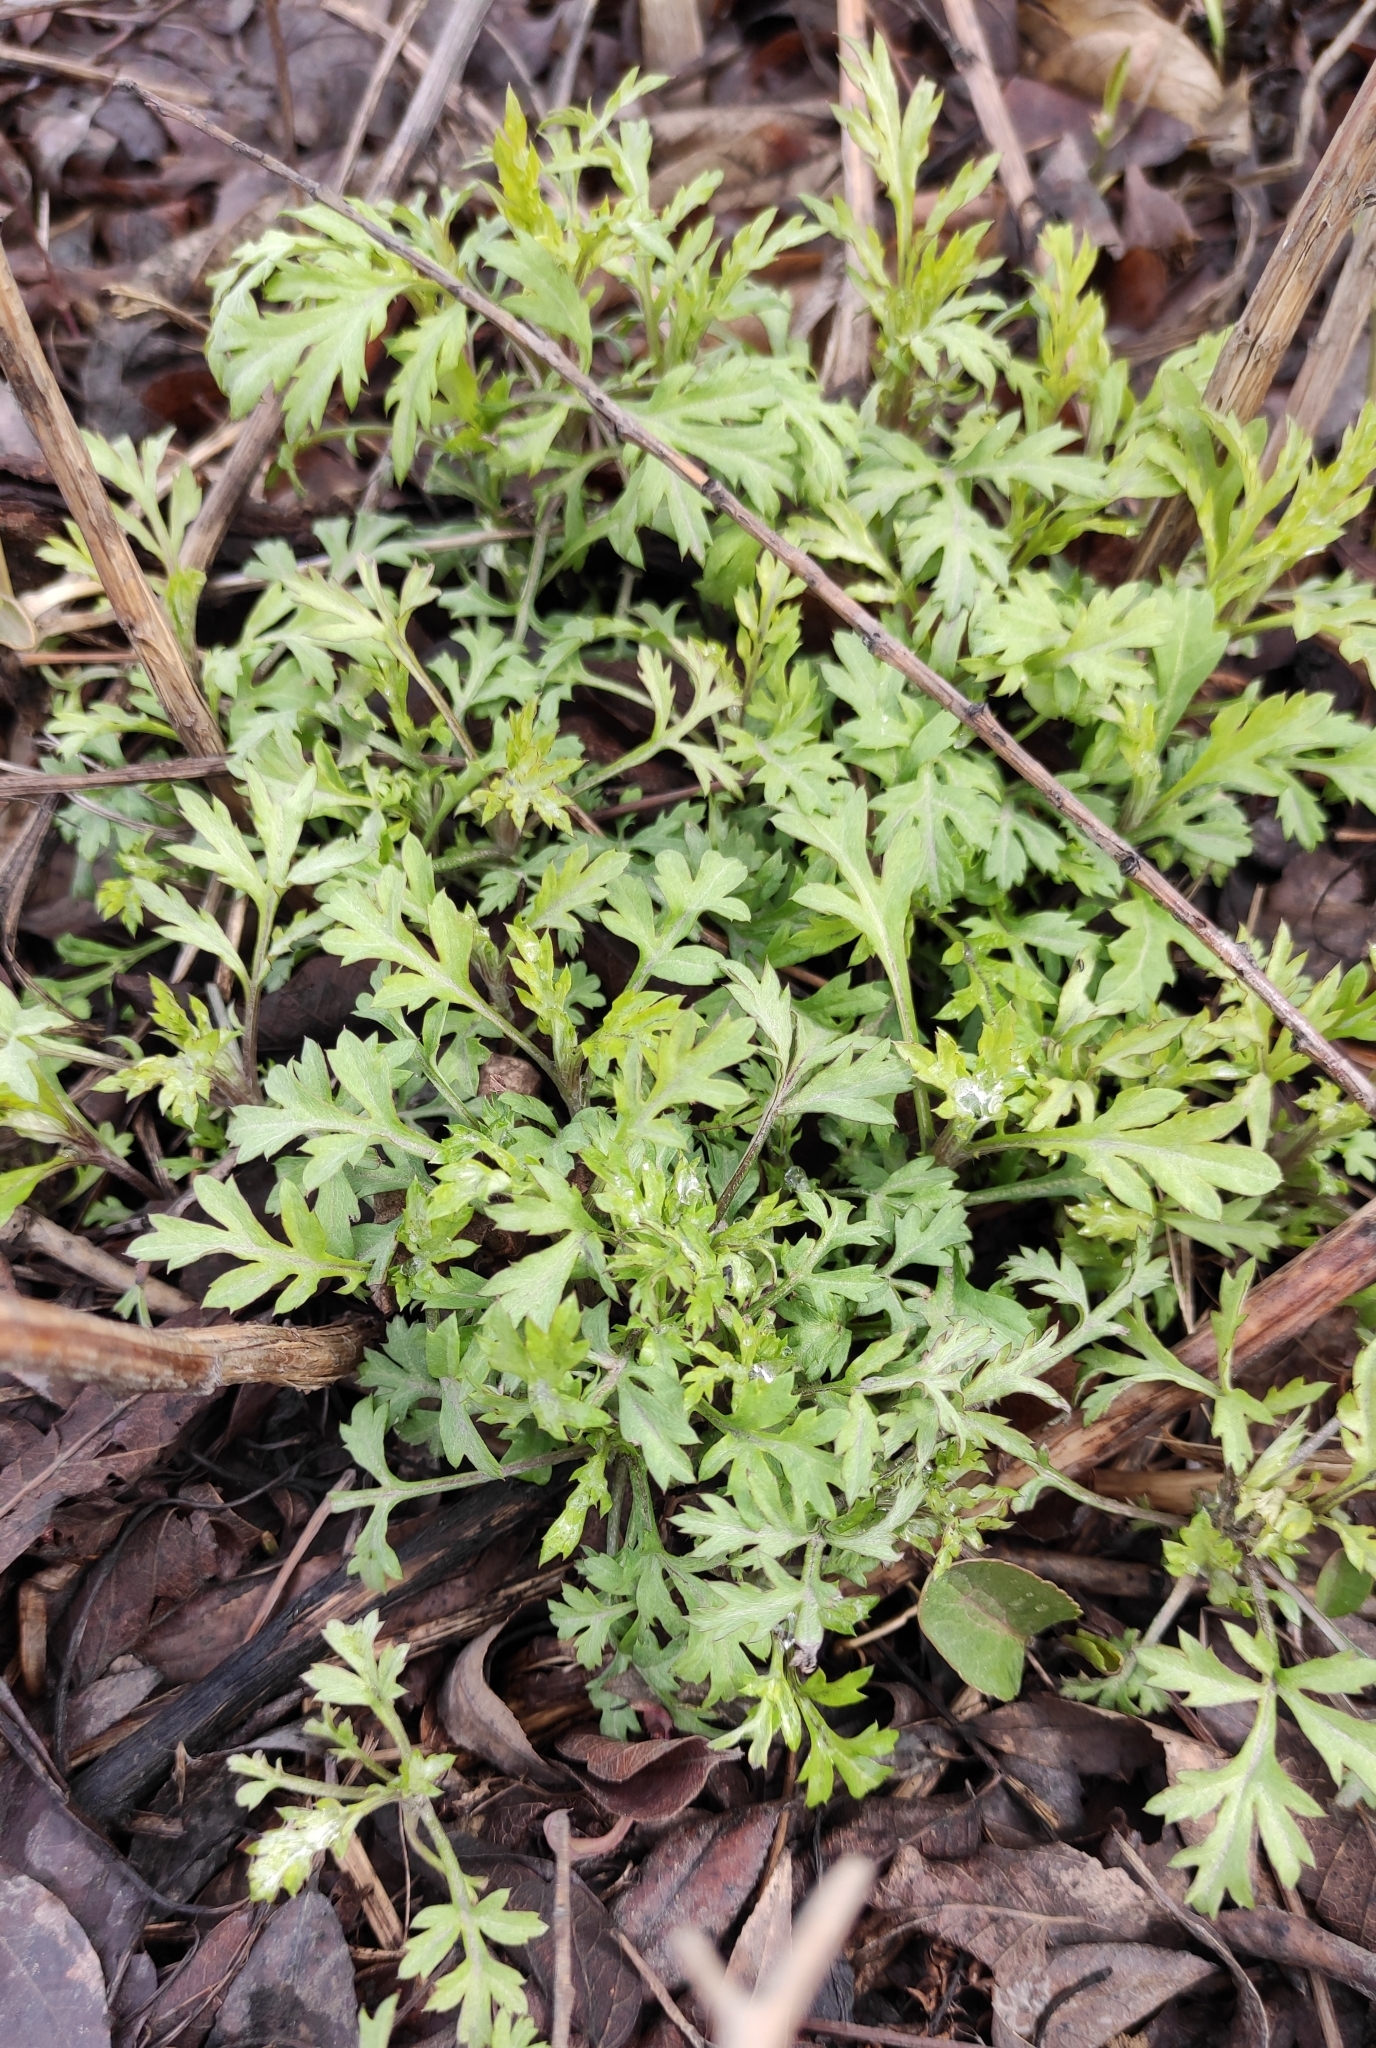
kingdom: Plantae
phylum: Tracheophyta
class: Magnoliopsida
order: Asterales
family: Asteraceae
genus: Artemisia
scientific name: Artemisia vulgaris
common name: Mugwort
